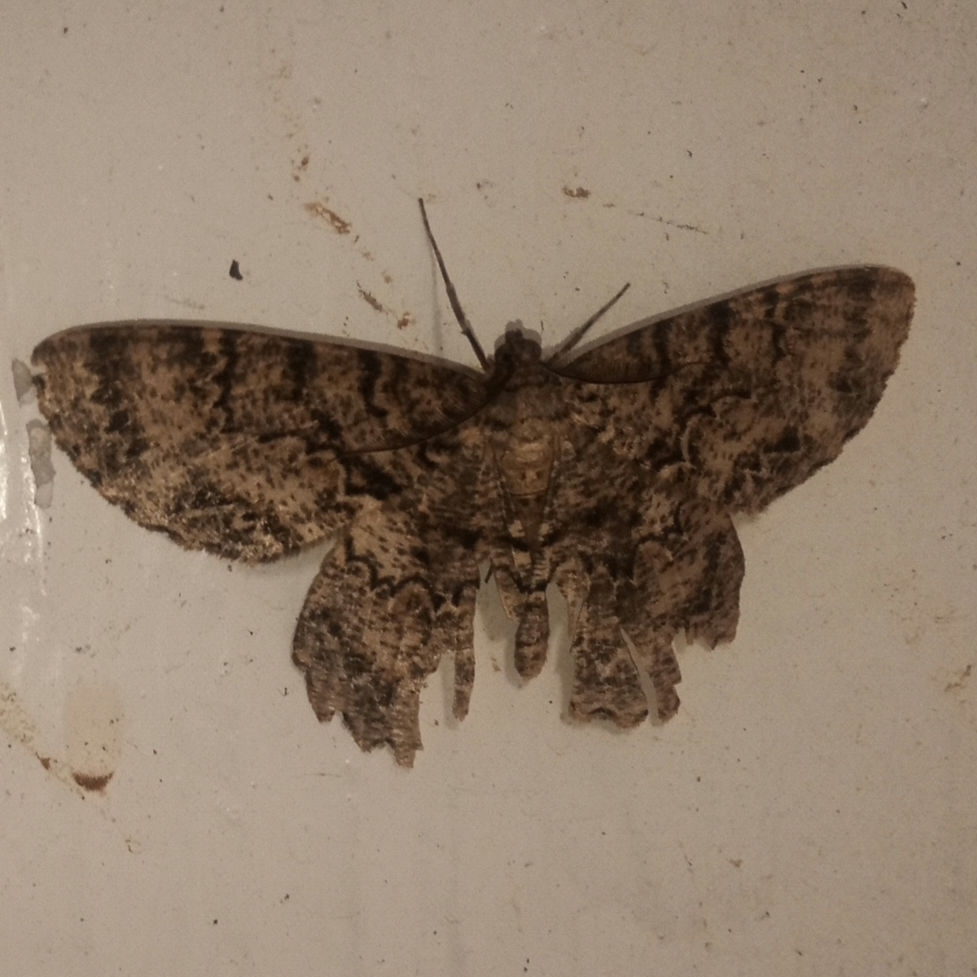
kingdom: Animalia
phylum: Arthropoda
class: Insecta
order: Lepidoptera
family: Geometridae
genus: Epimecis
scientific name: Epimecis hortaria
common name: Tulip-tree beauty
